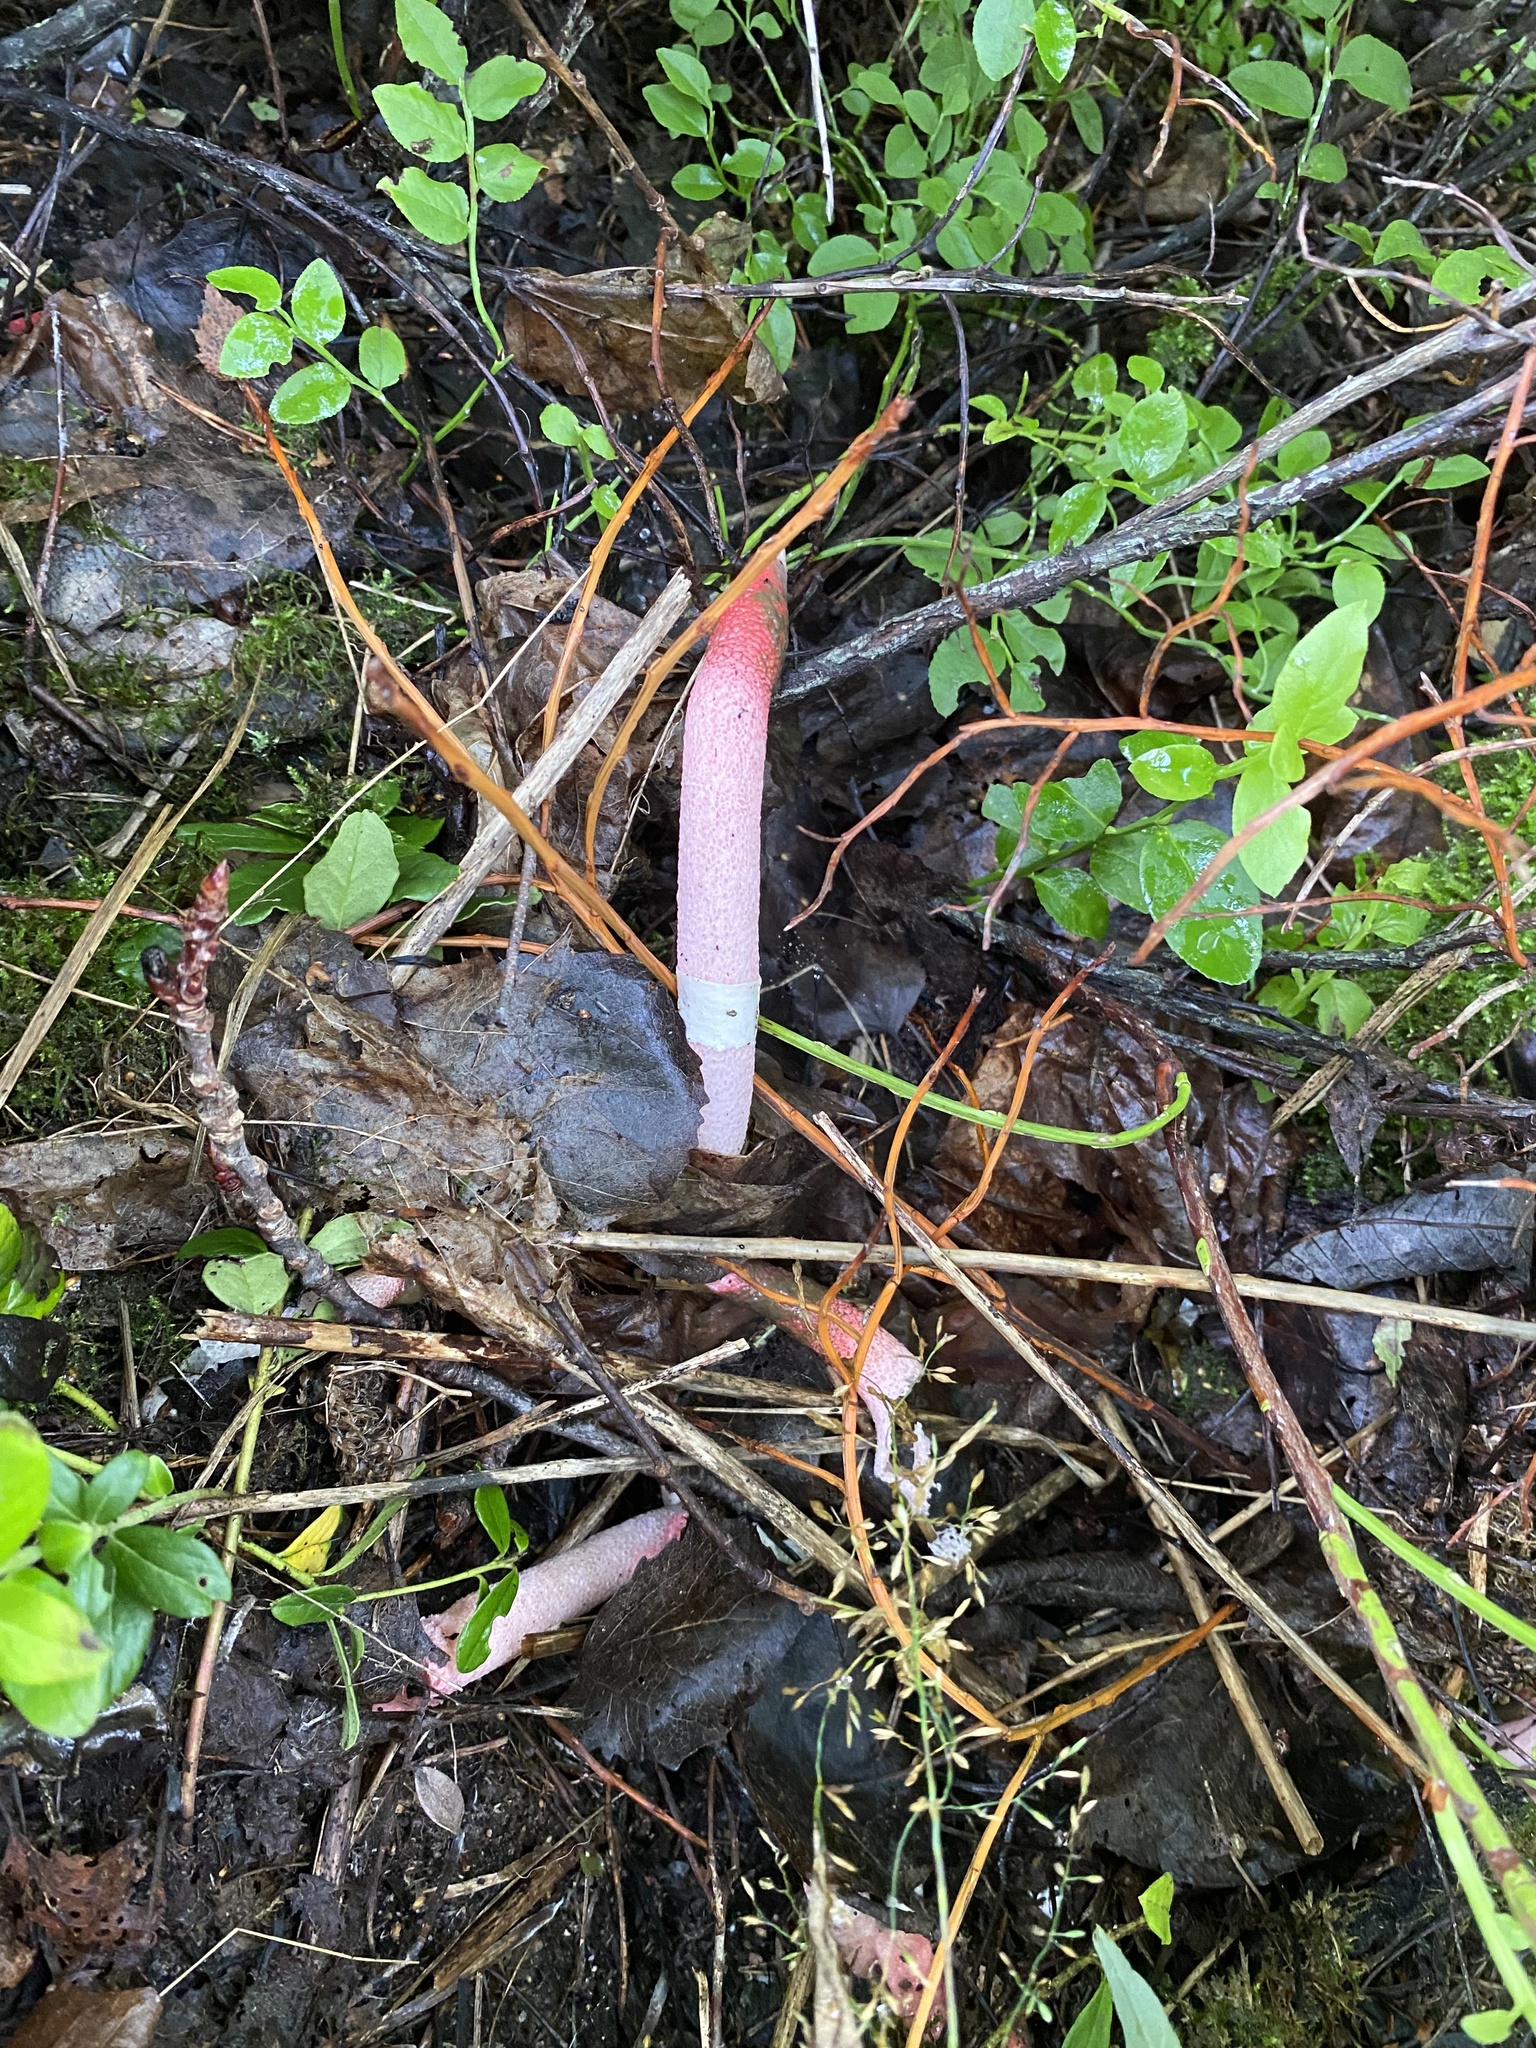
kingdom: Fungi
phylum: Basidiomycota
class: Agaricomycetes
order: Phallales
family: Phallaceae
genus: Mutinus
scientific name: Mutinus ravenelii
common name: Red stinkhorn
